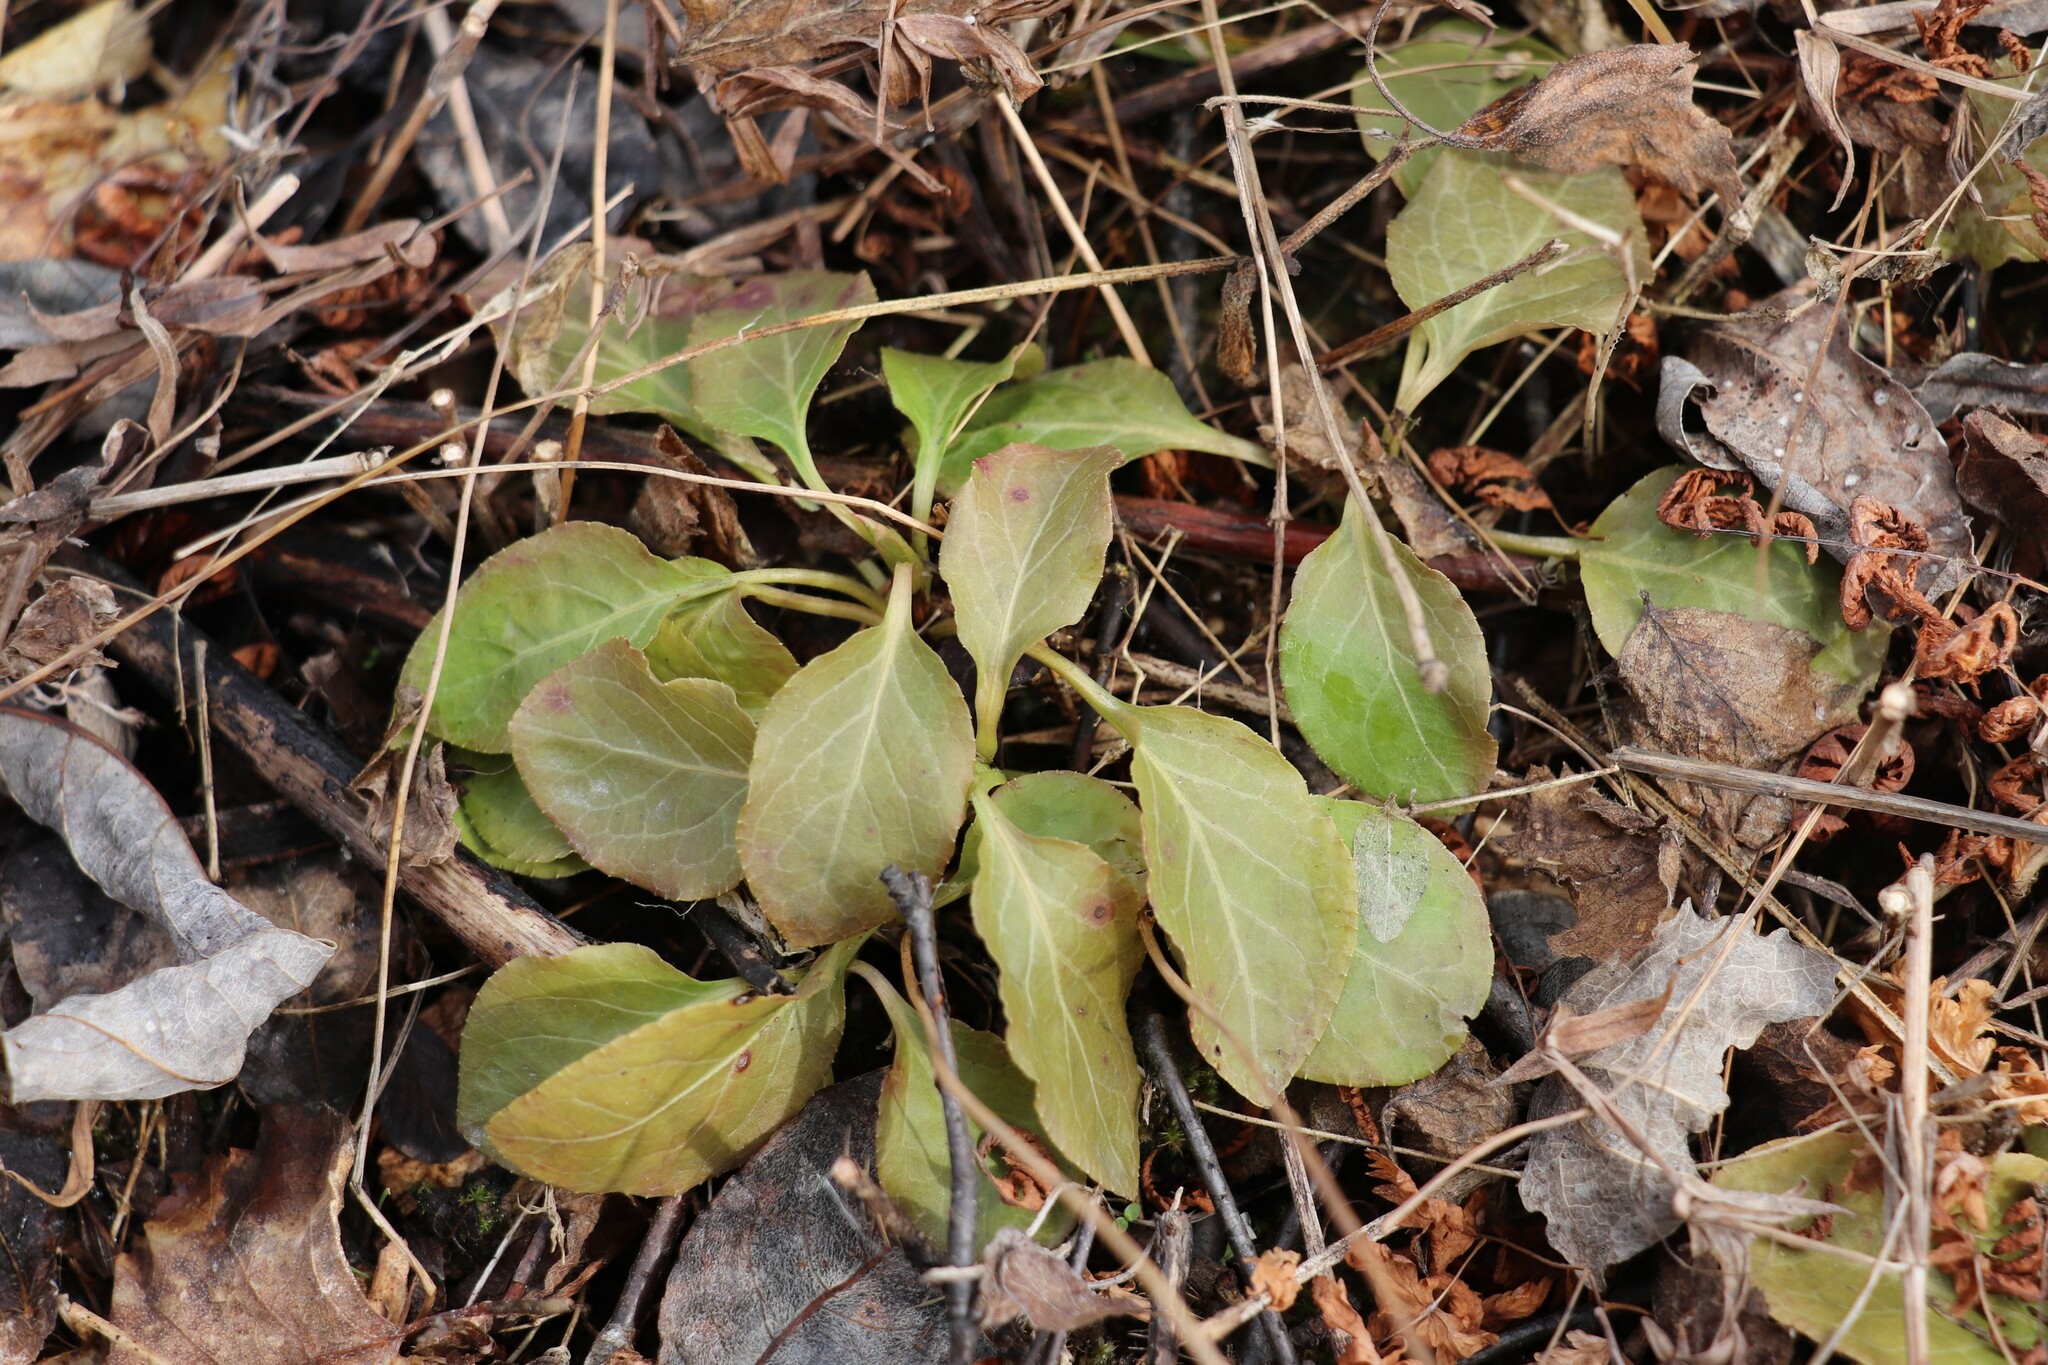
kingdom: Plantae
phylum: Tracheophyta
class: Magnoliopsida
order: Ericales
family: Ericaceae
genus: Orthilia
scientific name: Orthilia secunda
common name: One-sided orthilia
